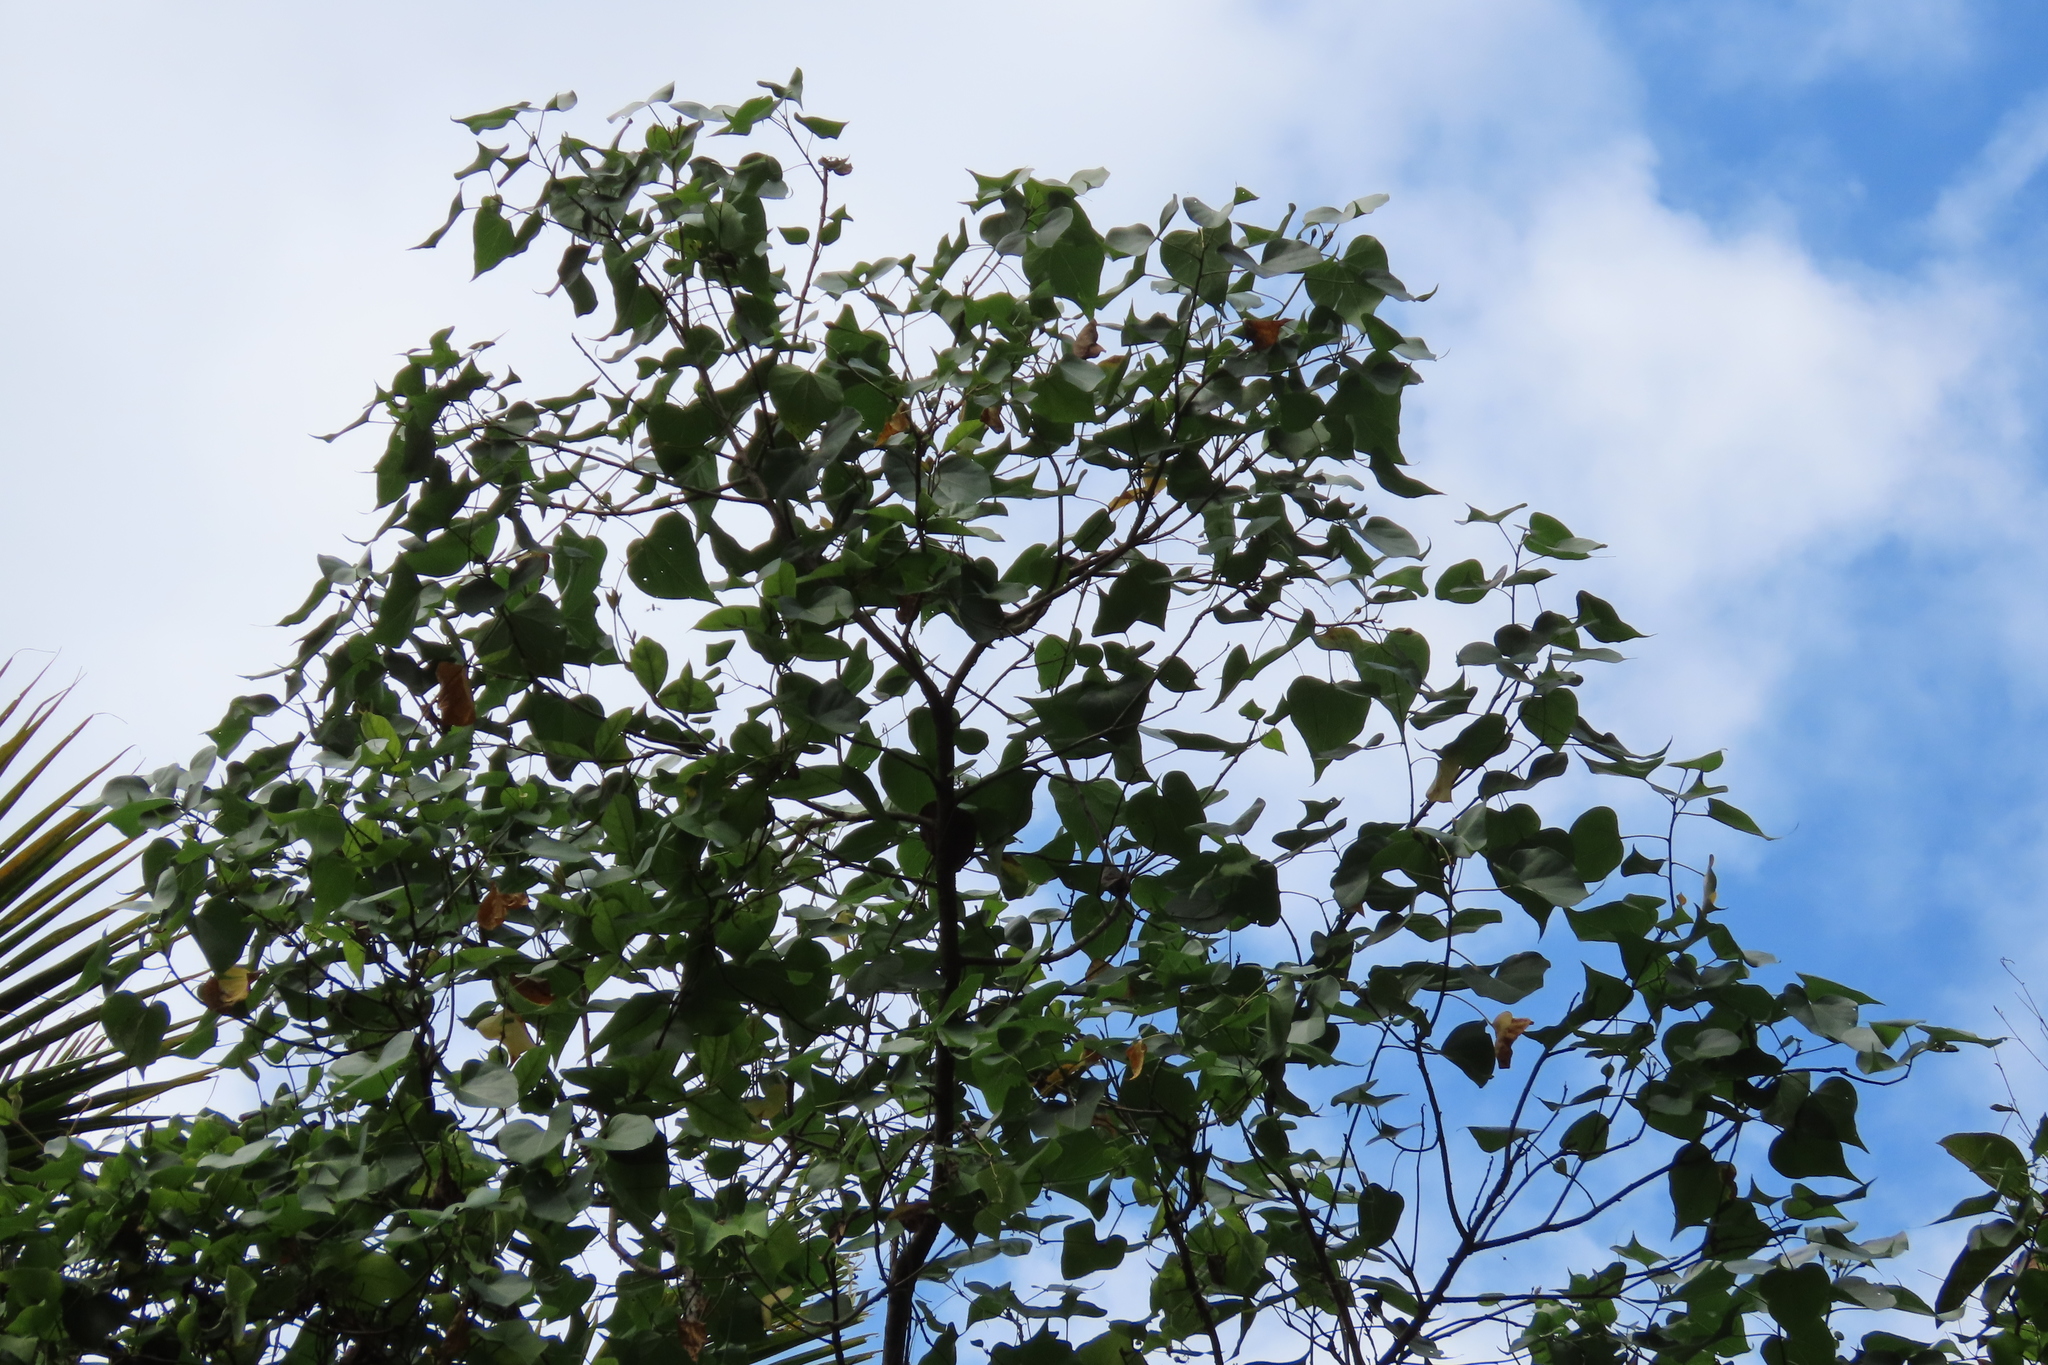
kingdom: Plantae
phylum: Tracheophyta
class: Magnoliopsida
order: Malvales
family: Malvaceae
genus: Thespesia
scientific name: Thespesia populnea
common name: Seaside mahoe
